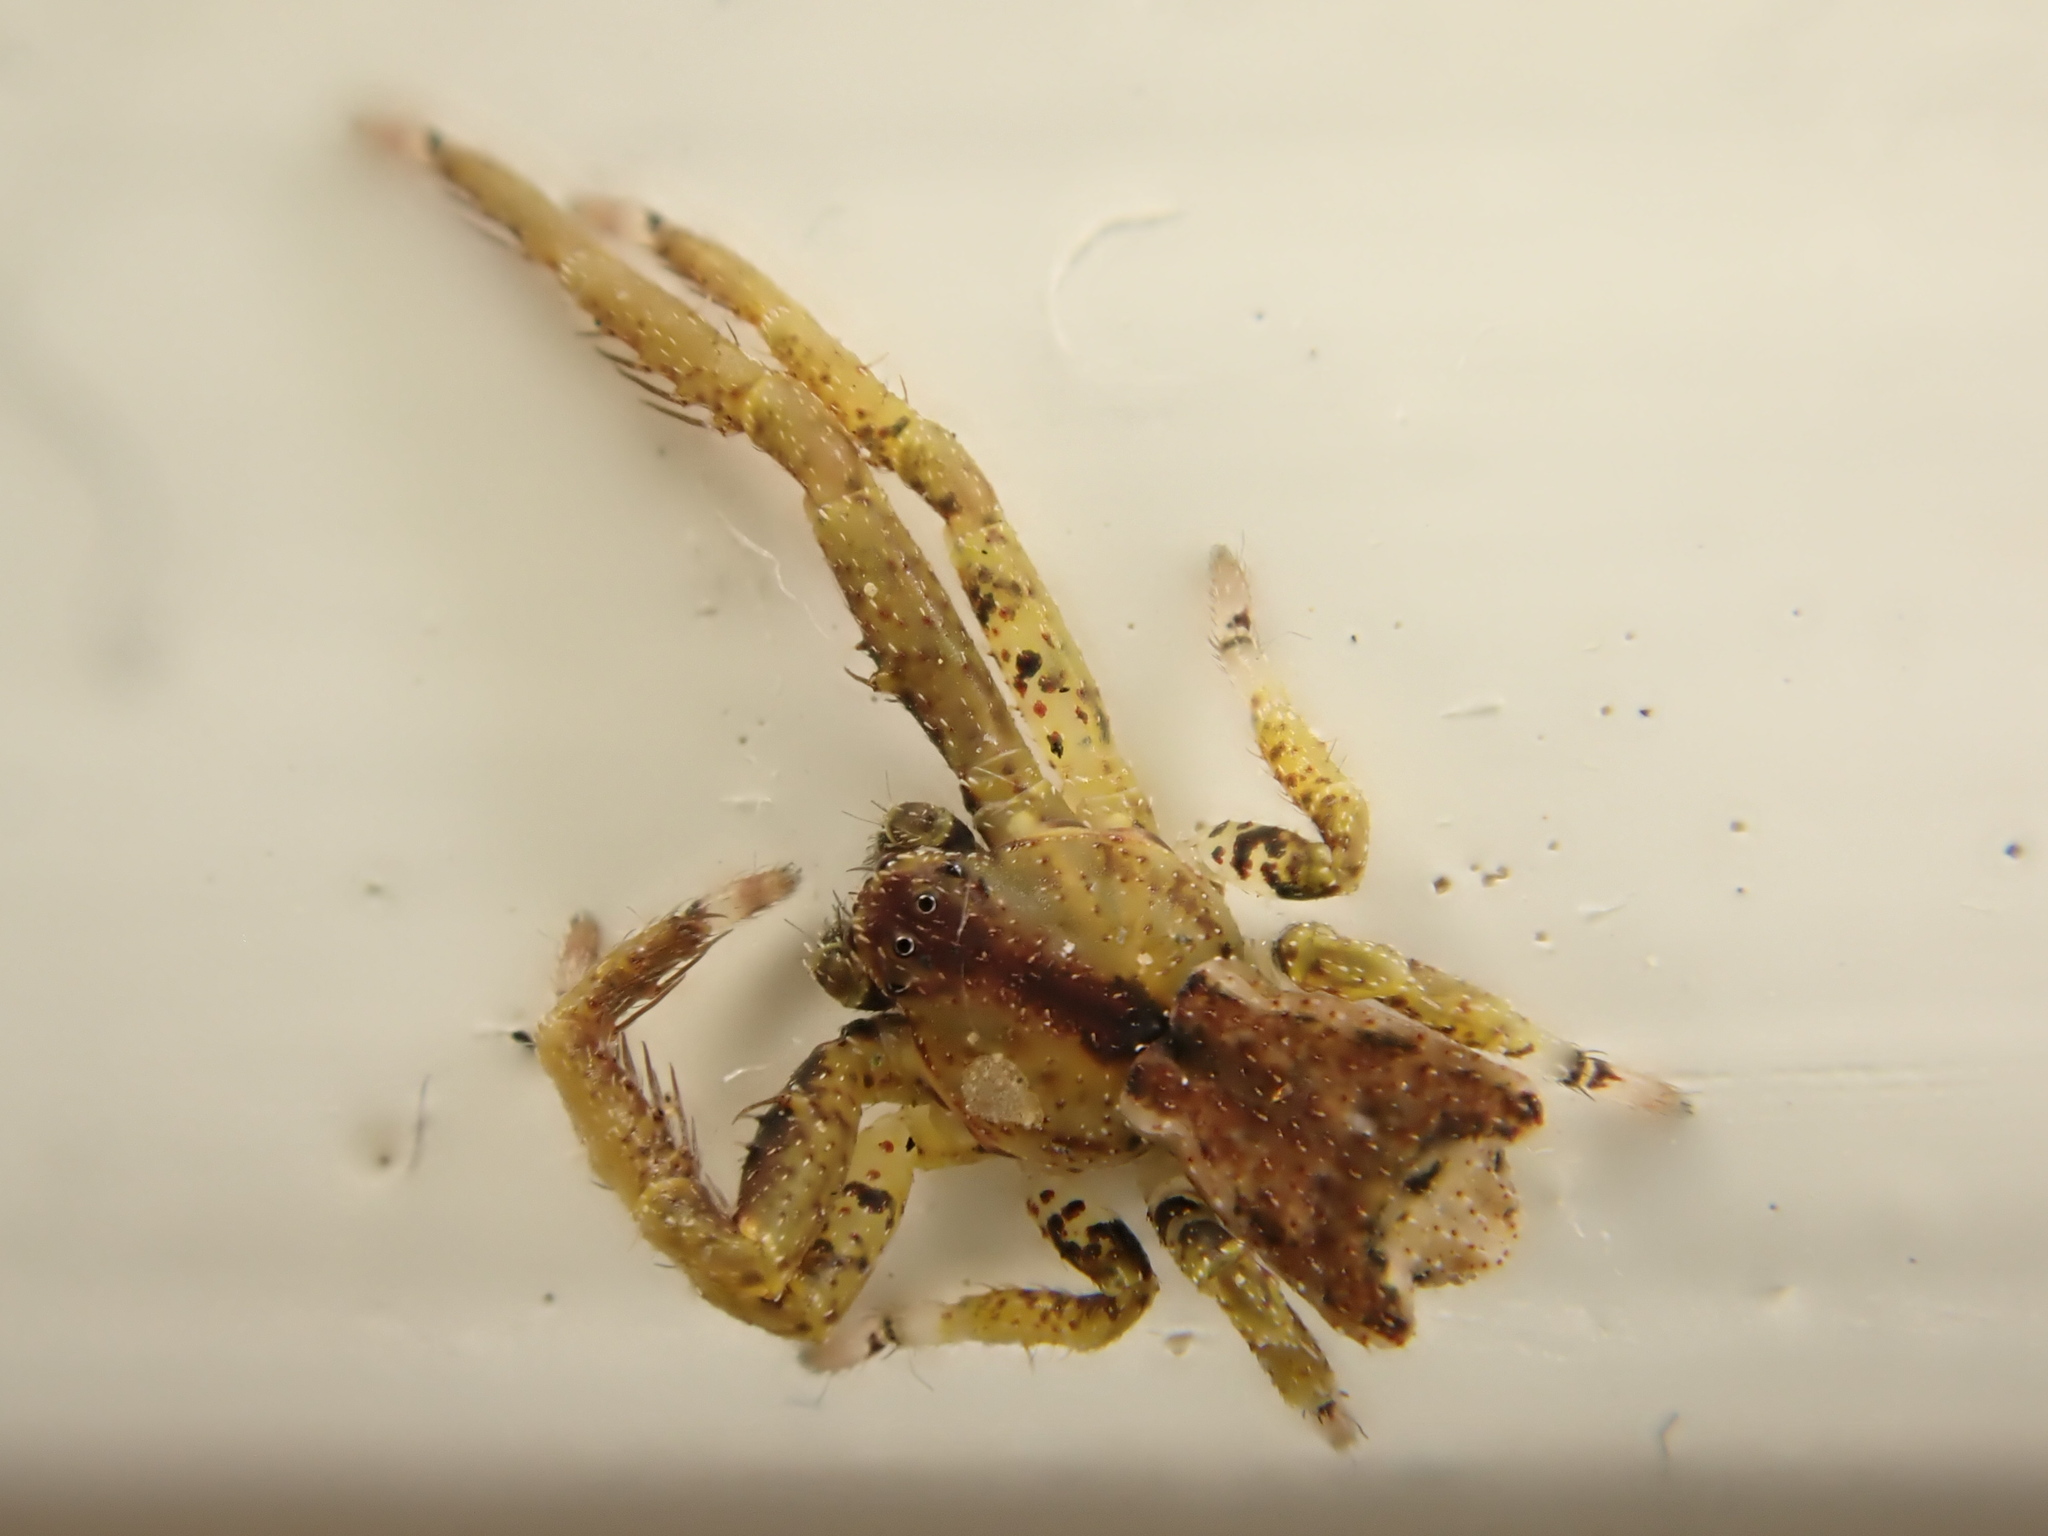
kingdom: Animalia
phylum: Arthropoda
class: Arachnida
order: Araneae
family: Thomisidae
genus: Sidymella
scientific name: Sidymella angularis
